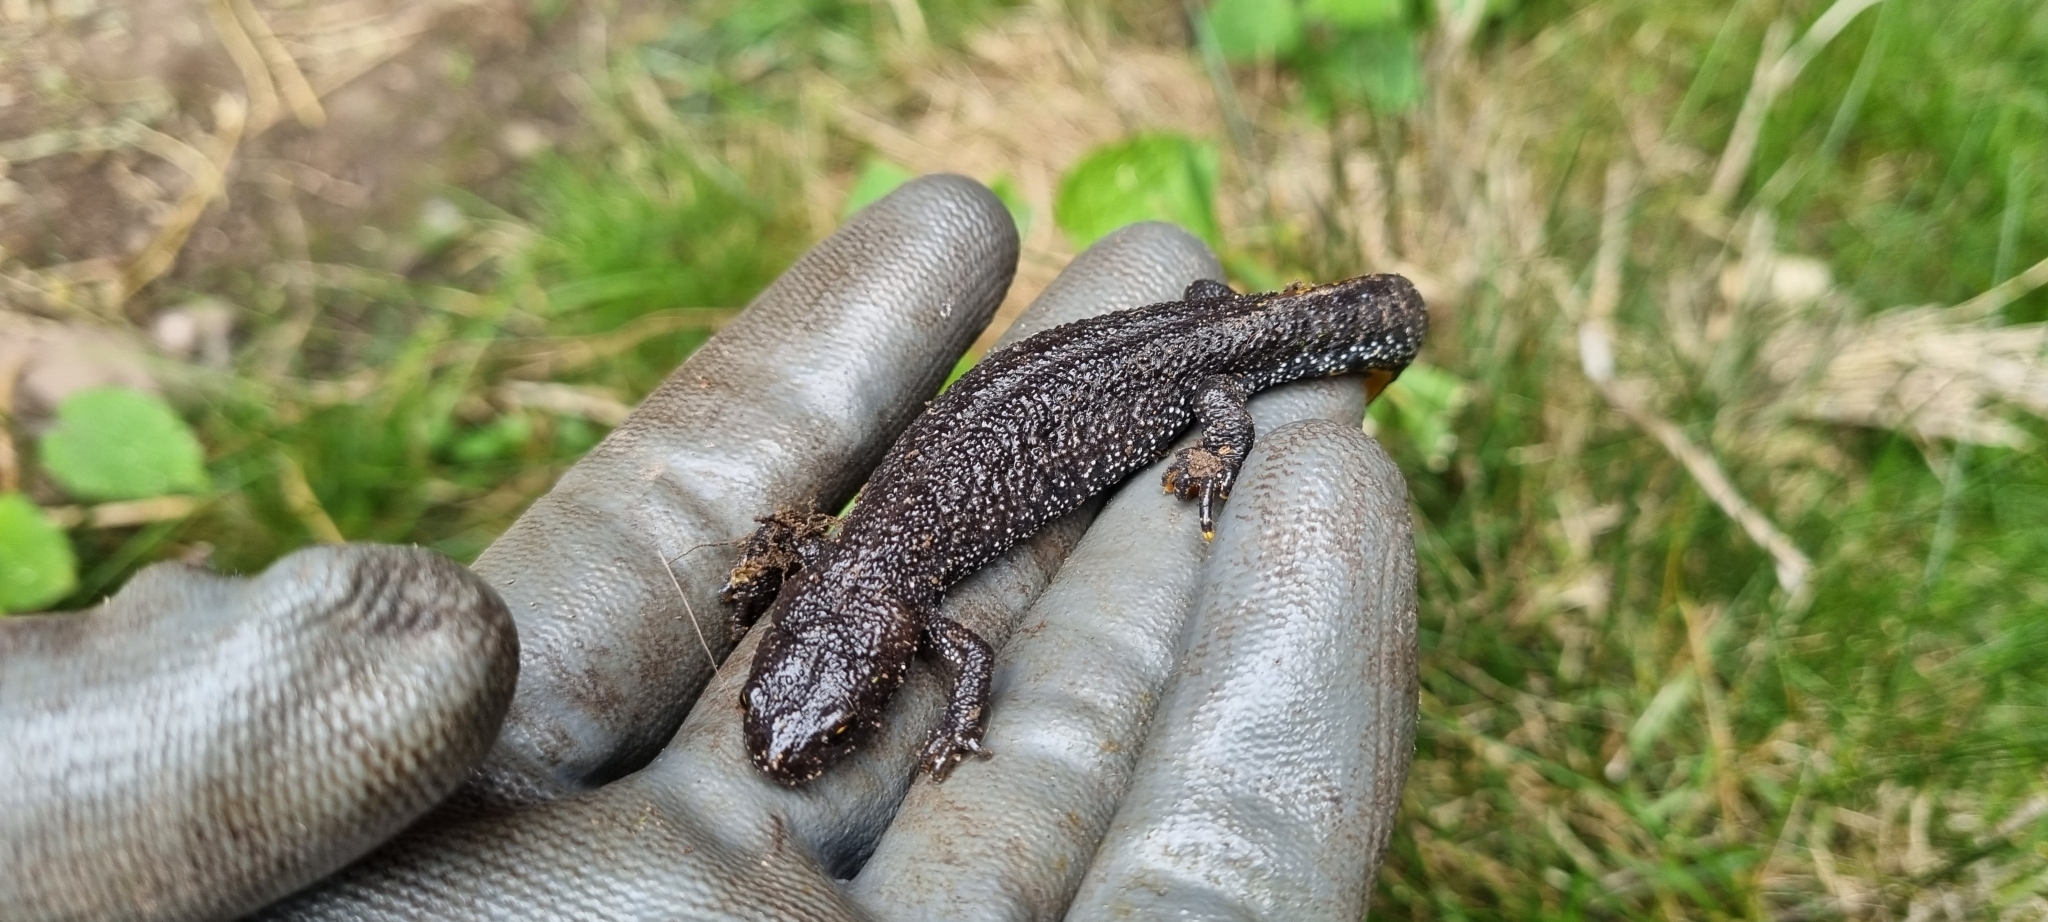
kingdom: Animalia
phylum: Chordata
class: Amphibia
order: Caudata
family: Salamandridae
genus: Triturus
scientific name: Triturus cristatus
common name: Crested newt
